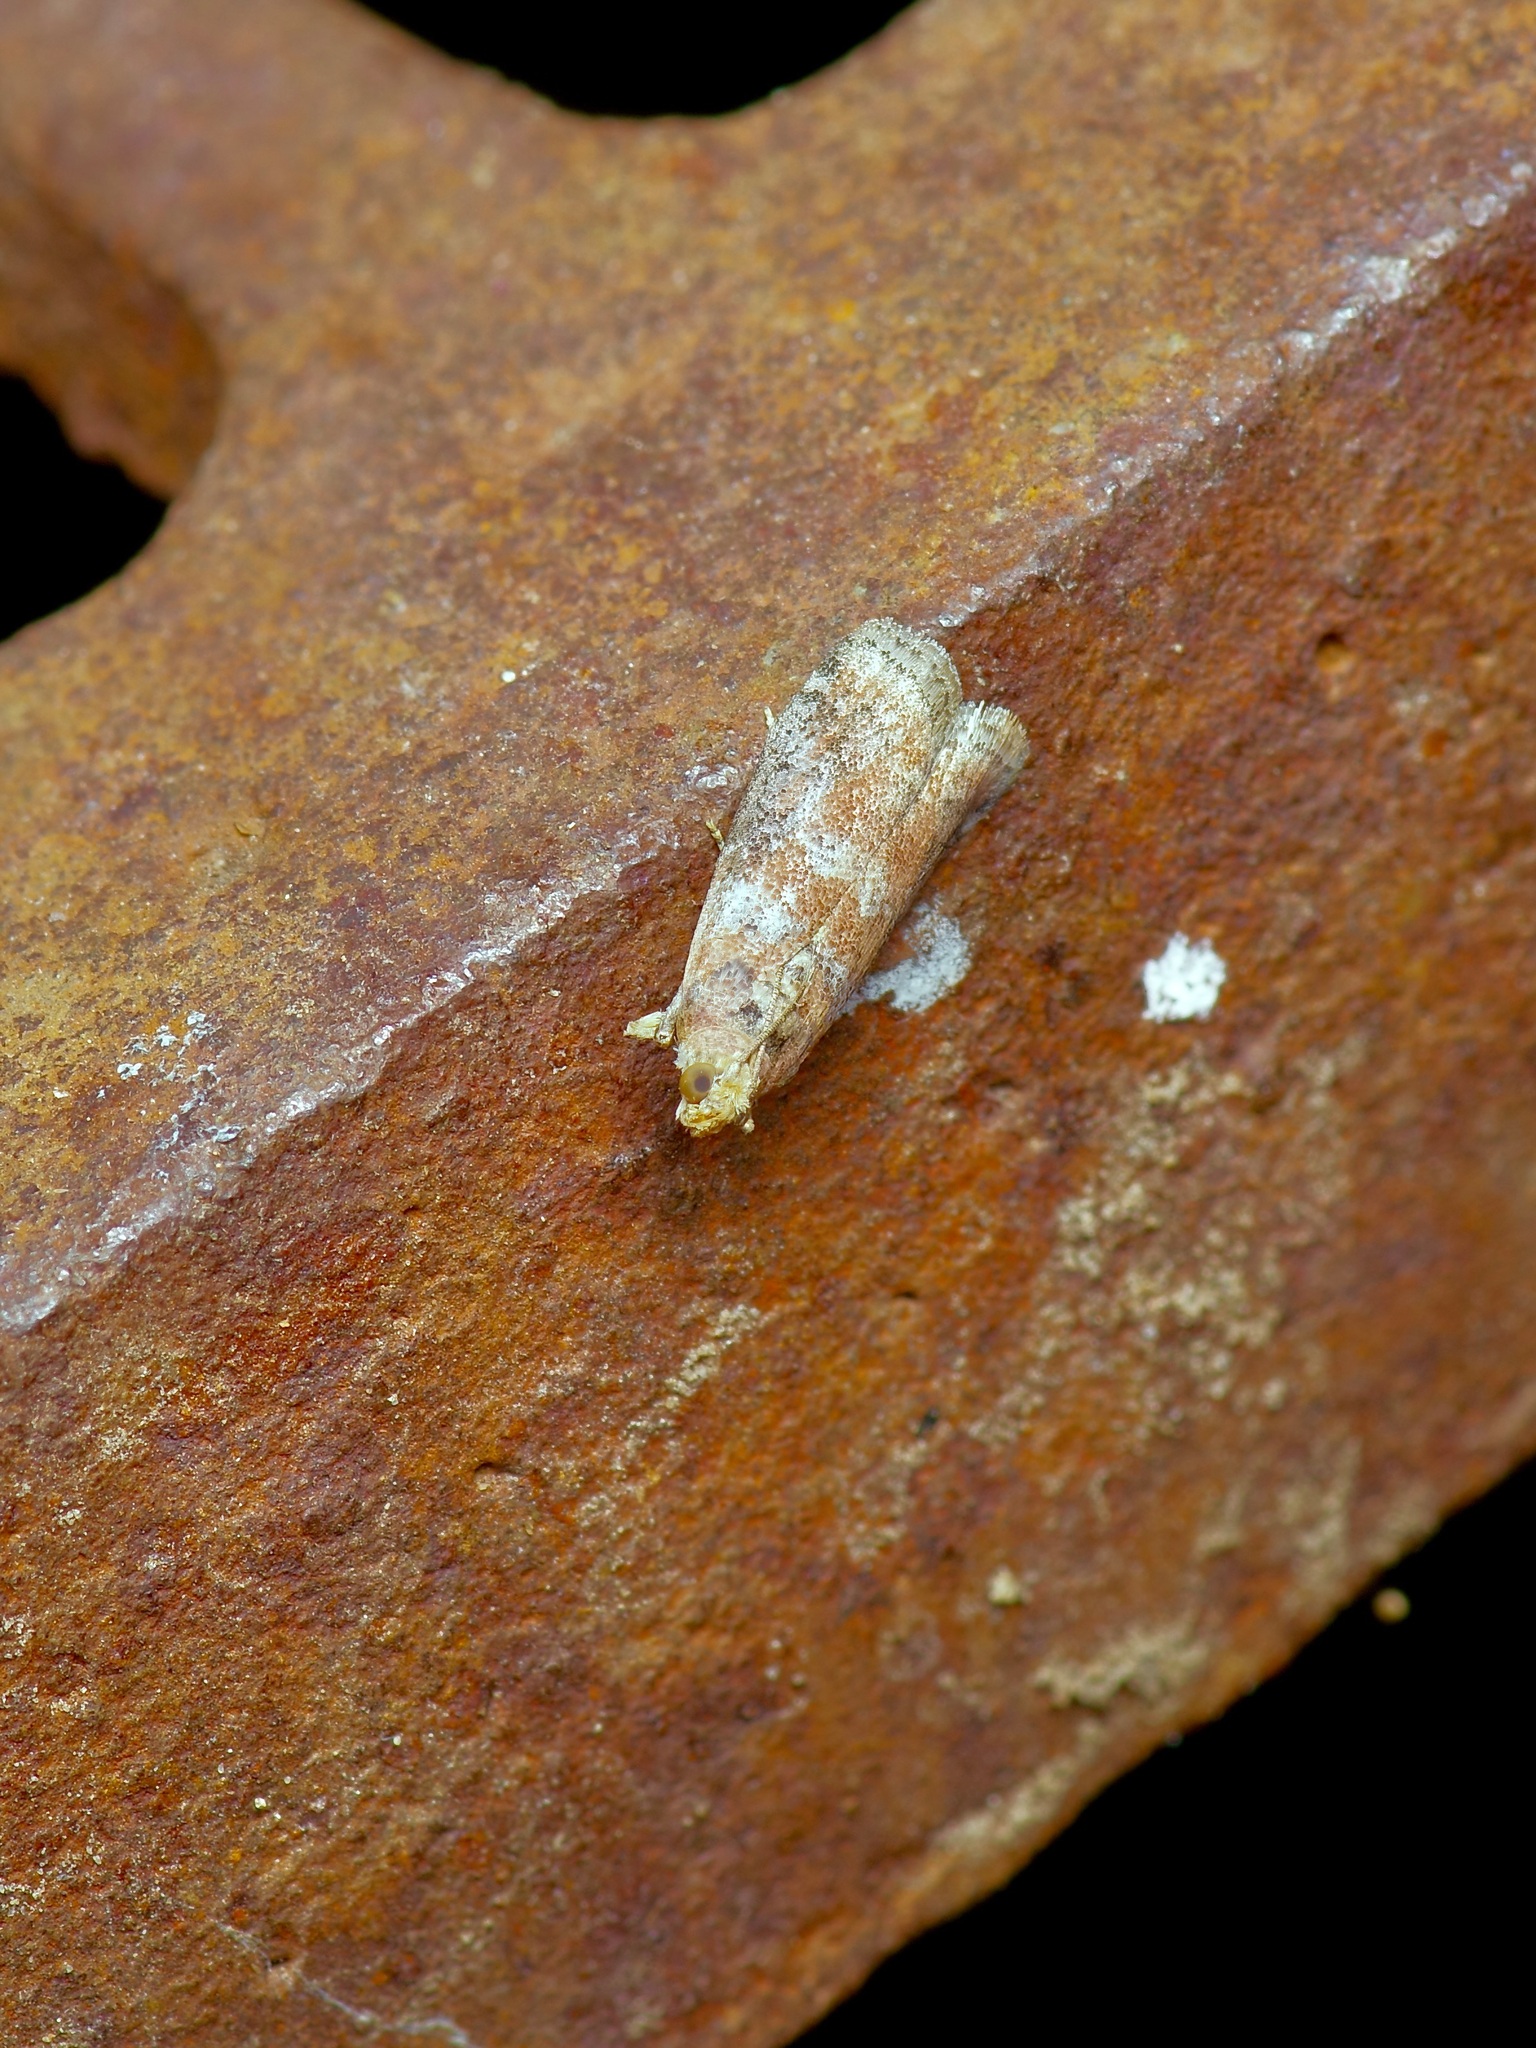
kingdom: Animalia
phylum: Arthropoda
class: Insecta
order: Lepidoptera
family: Pyralidae
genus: Sciota
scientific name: Sciota
